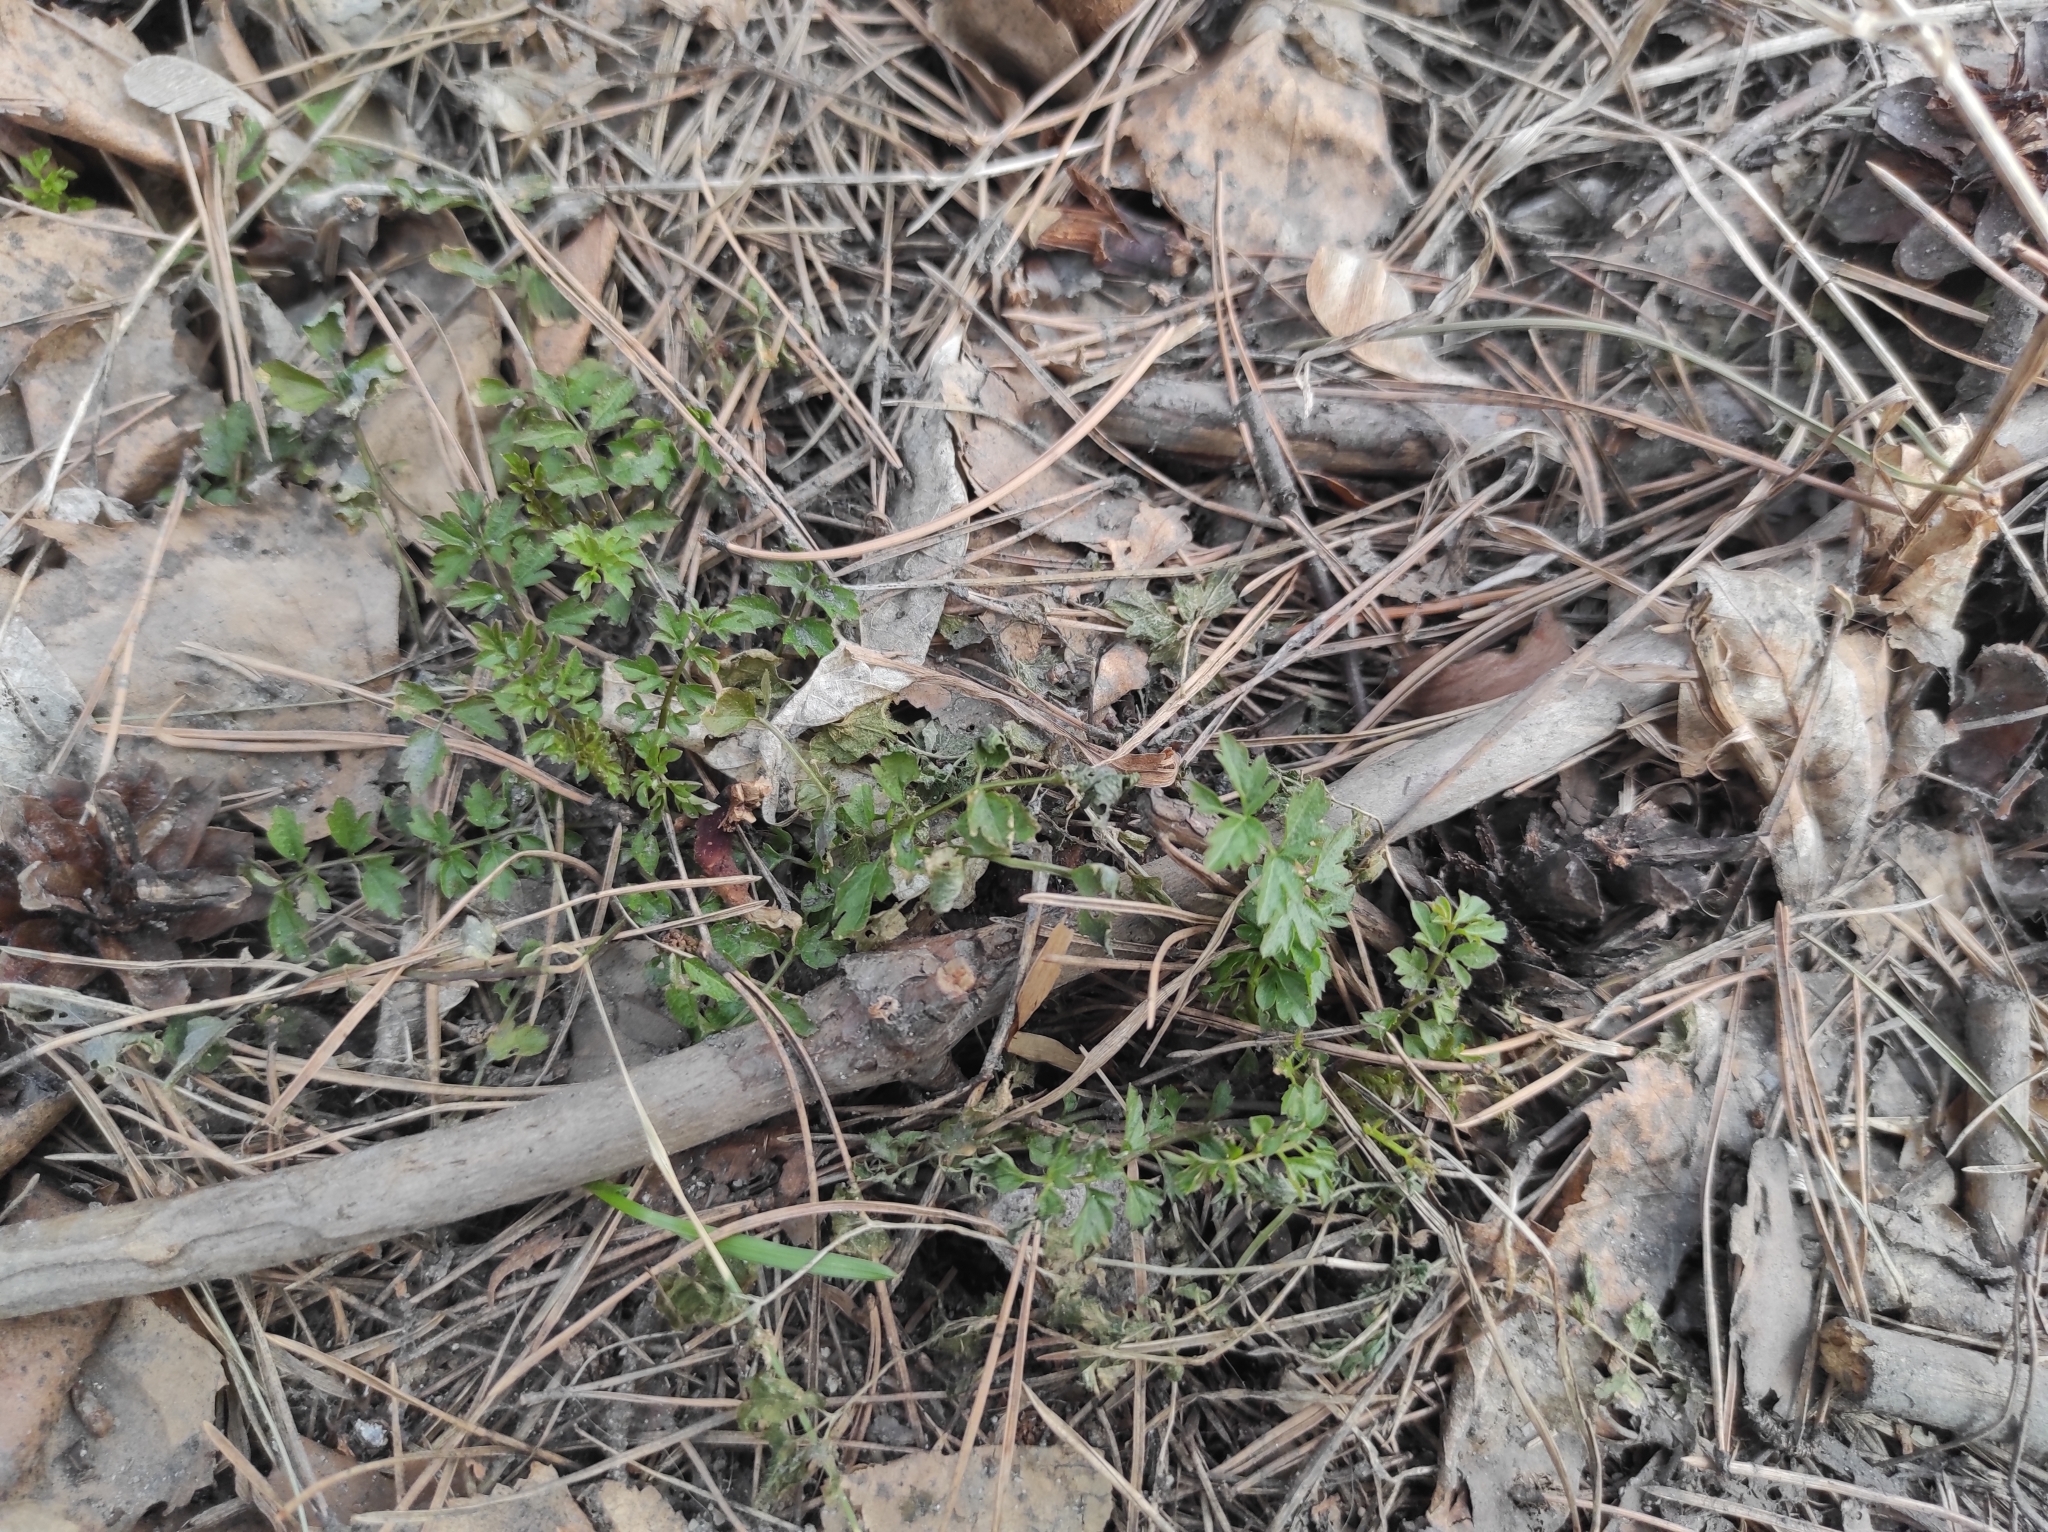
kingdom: Plantae
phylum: Tracheophyta
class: Magnoliopsida
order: Brassicales
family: Brassicaceae
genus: Cardamine
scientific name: Cardamine impatiens
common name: Narrow-leaved bitter-cress
